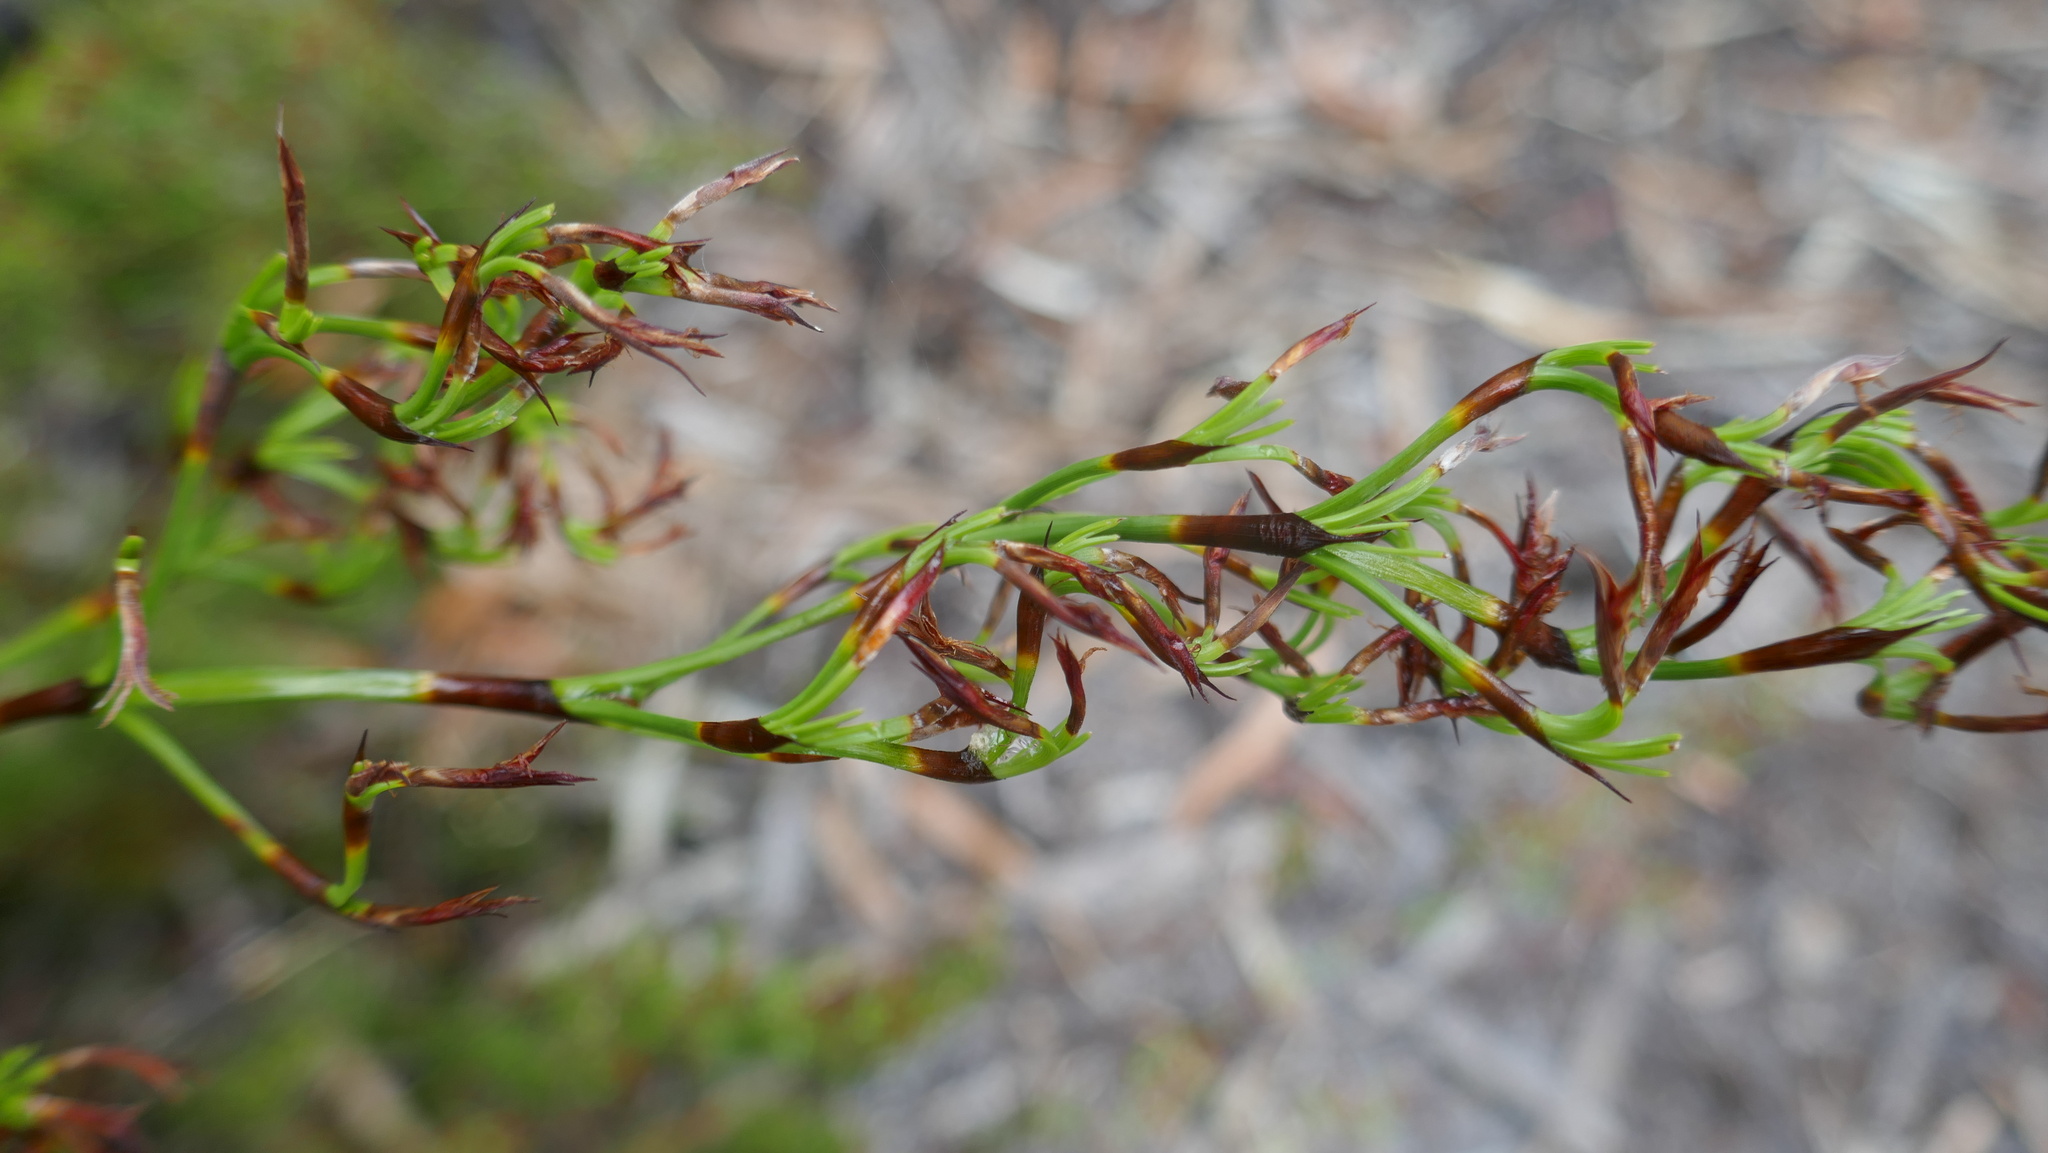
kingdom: Plantae
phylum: Tracheophyta
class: Liliopsida
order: Poales
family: Cyperaceae
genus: Caustis
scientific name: Caustis flexuosa
